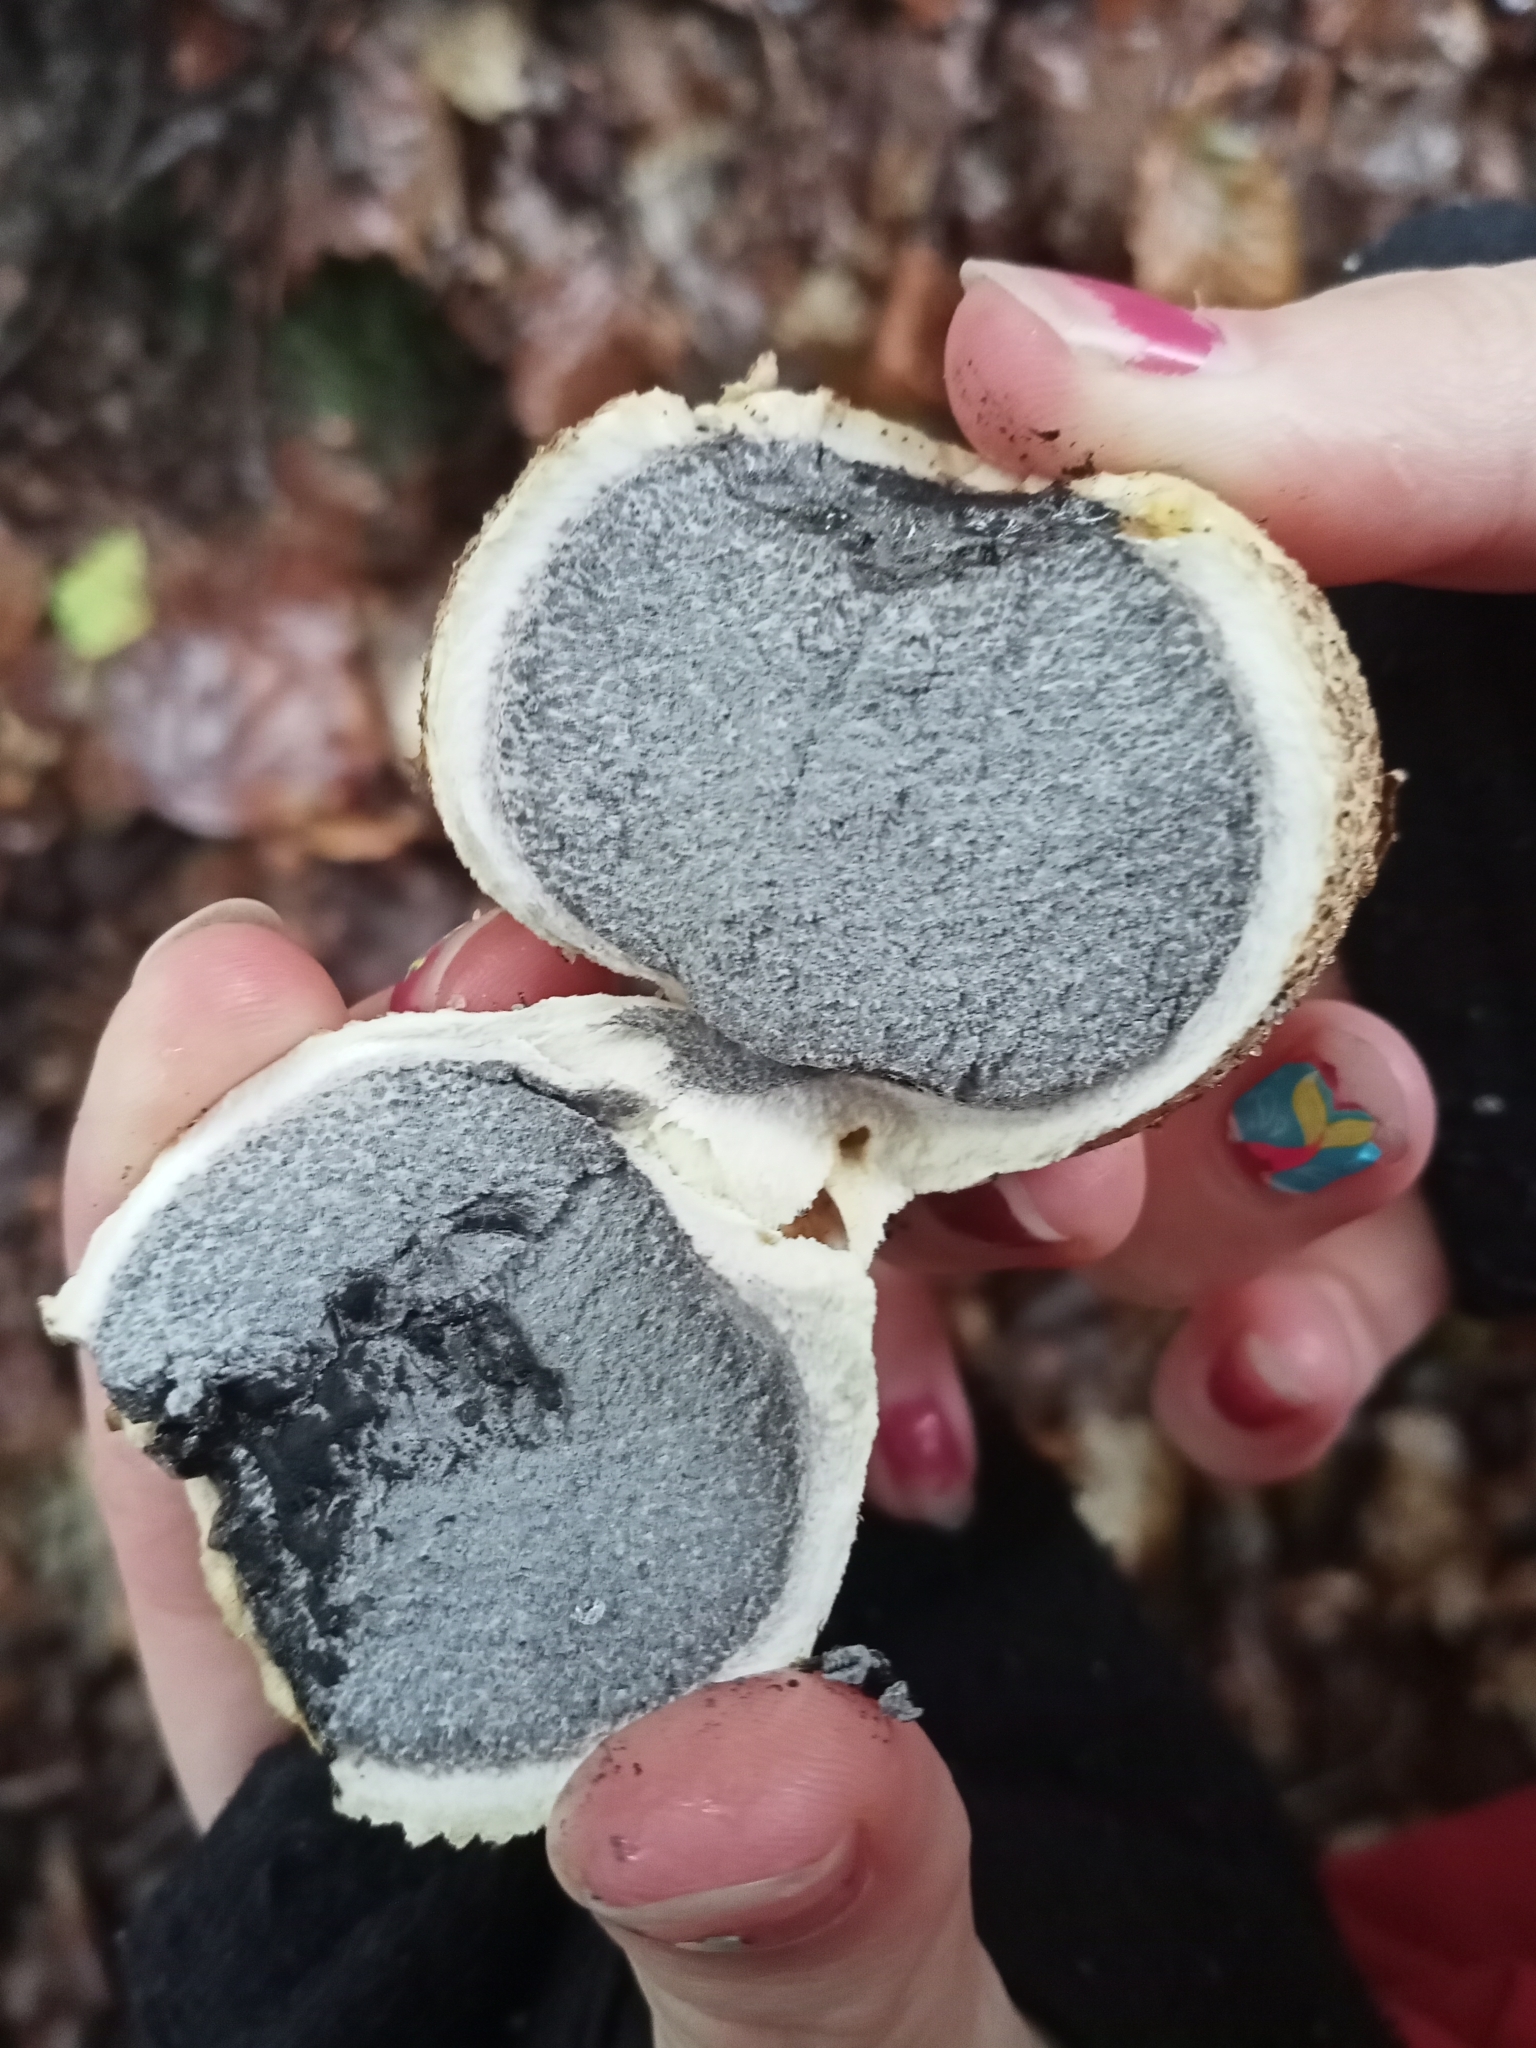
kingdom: Fungi
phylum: Basidiomycota
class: Agaricomycetes
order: Boletales
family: Sclerodermataceae
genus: Scleroderma
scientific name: Scleroderma citrinum
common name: Common earthball
